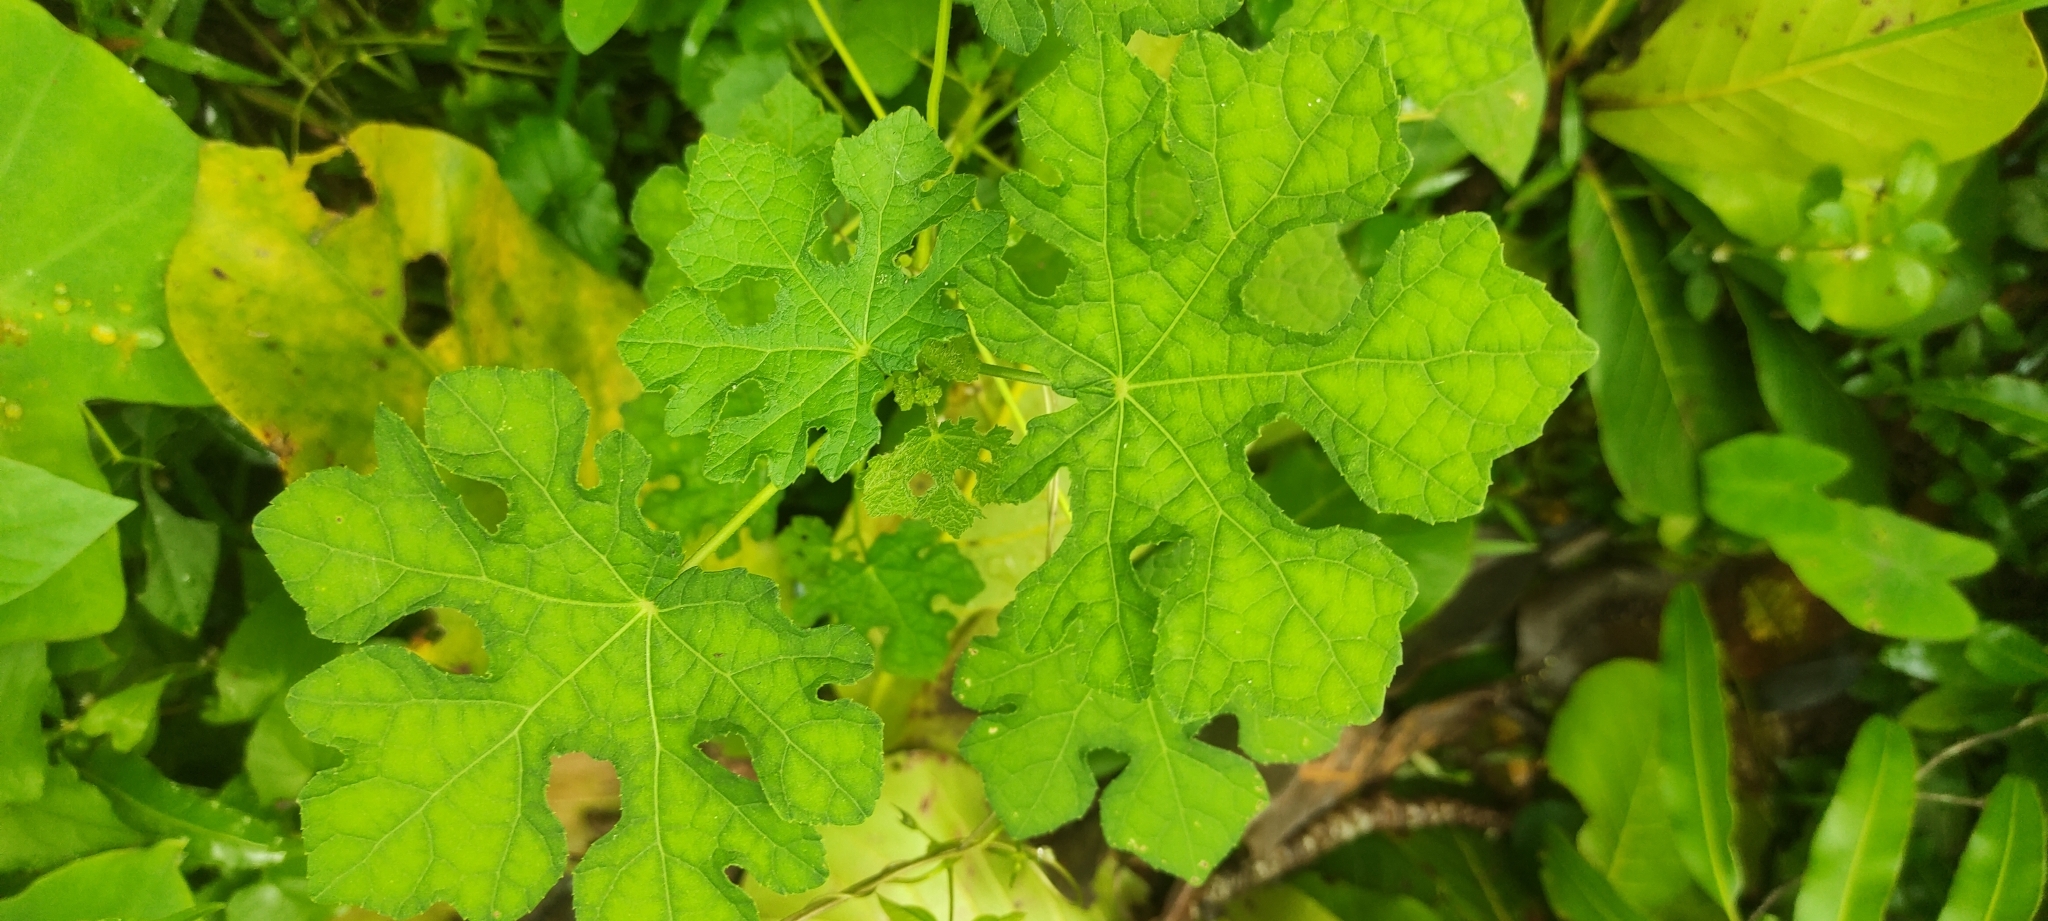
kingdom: Plantae
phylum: Tracheophyta
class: Magnoliopsida
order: Malvales
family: Malvaceae
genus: Urena
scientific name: Urena procumbens
